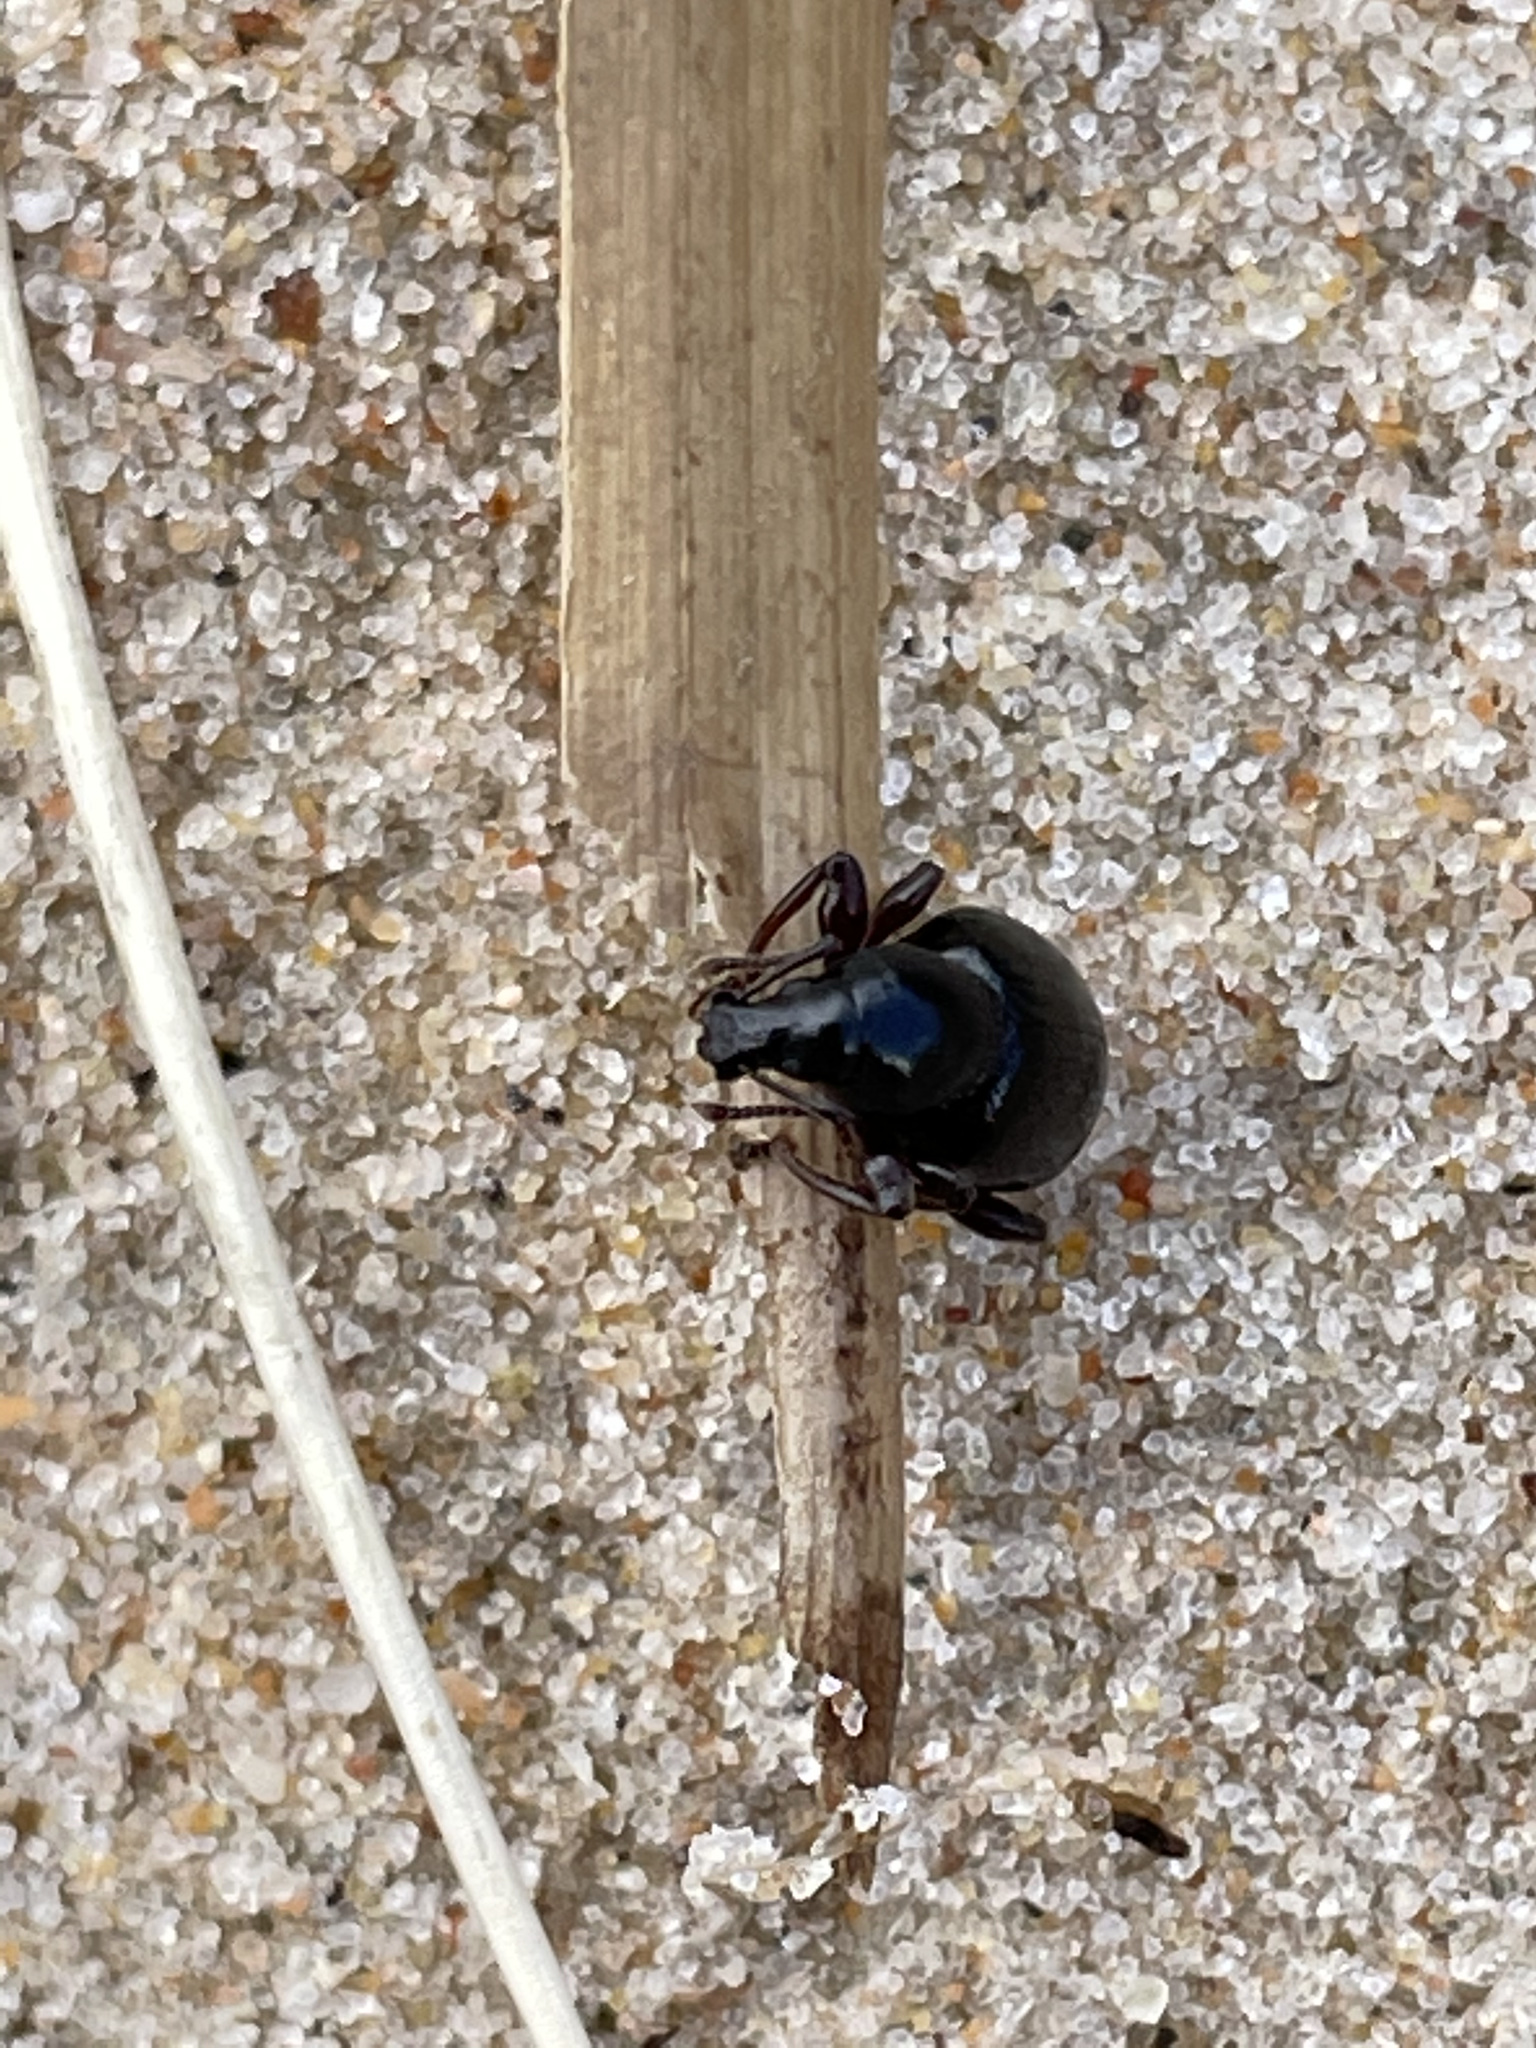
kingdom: Animalia
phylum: Arthropoda
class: Insecta
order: Coleoptera
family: Curculionidae
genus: Otiorhynchus
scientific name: Otiorhynchus atroapterus
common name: Black marram weevil
